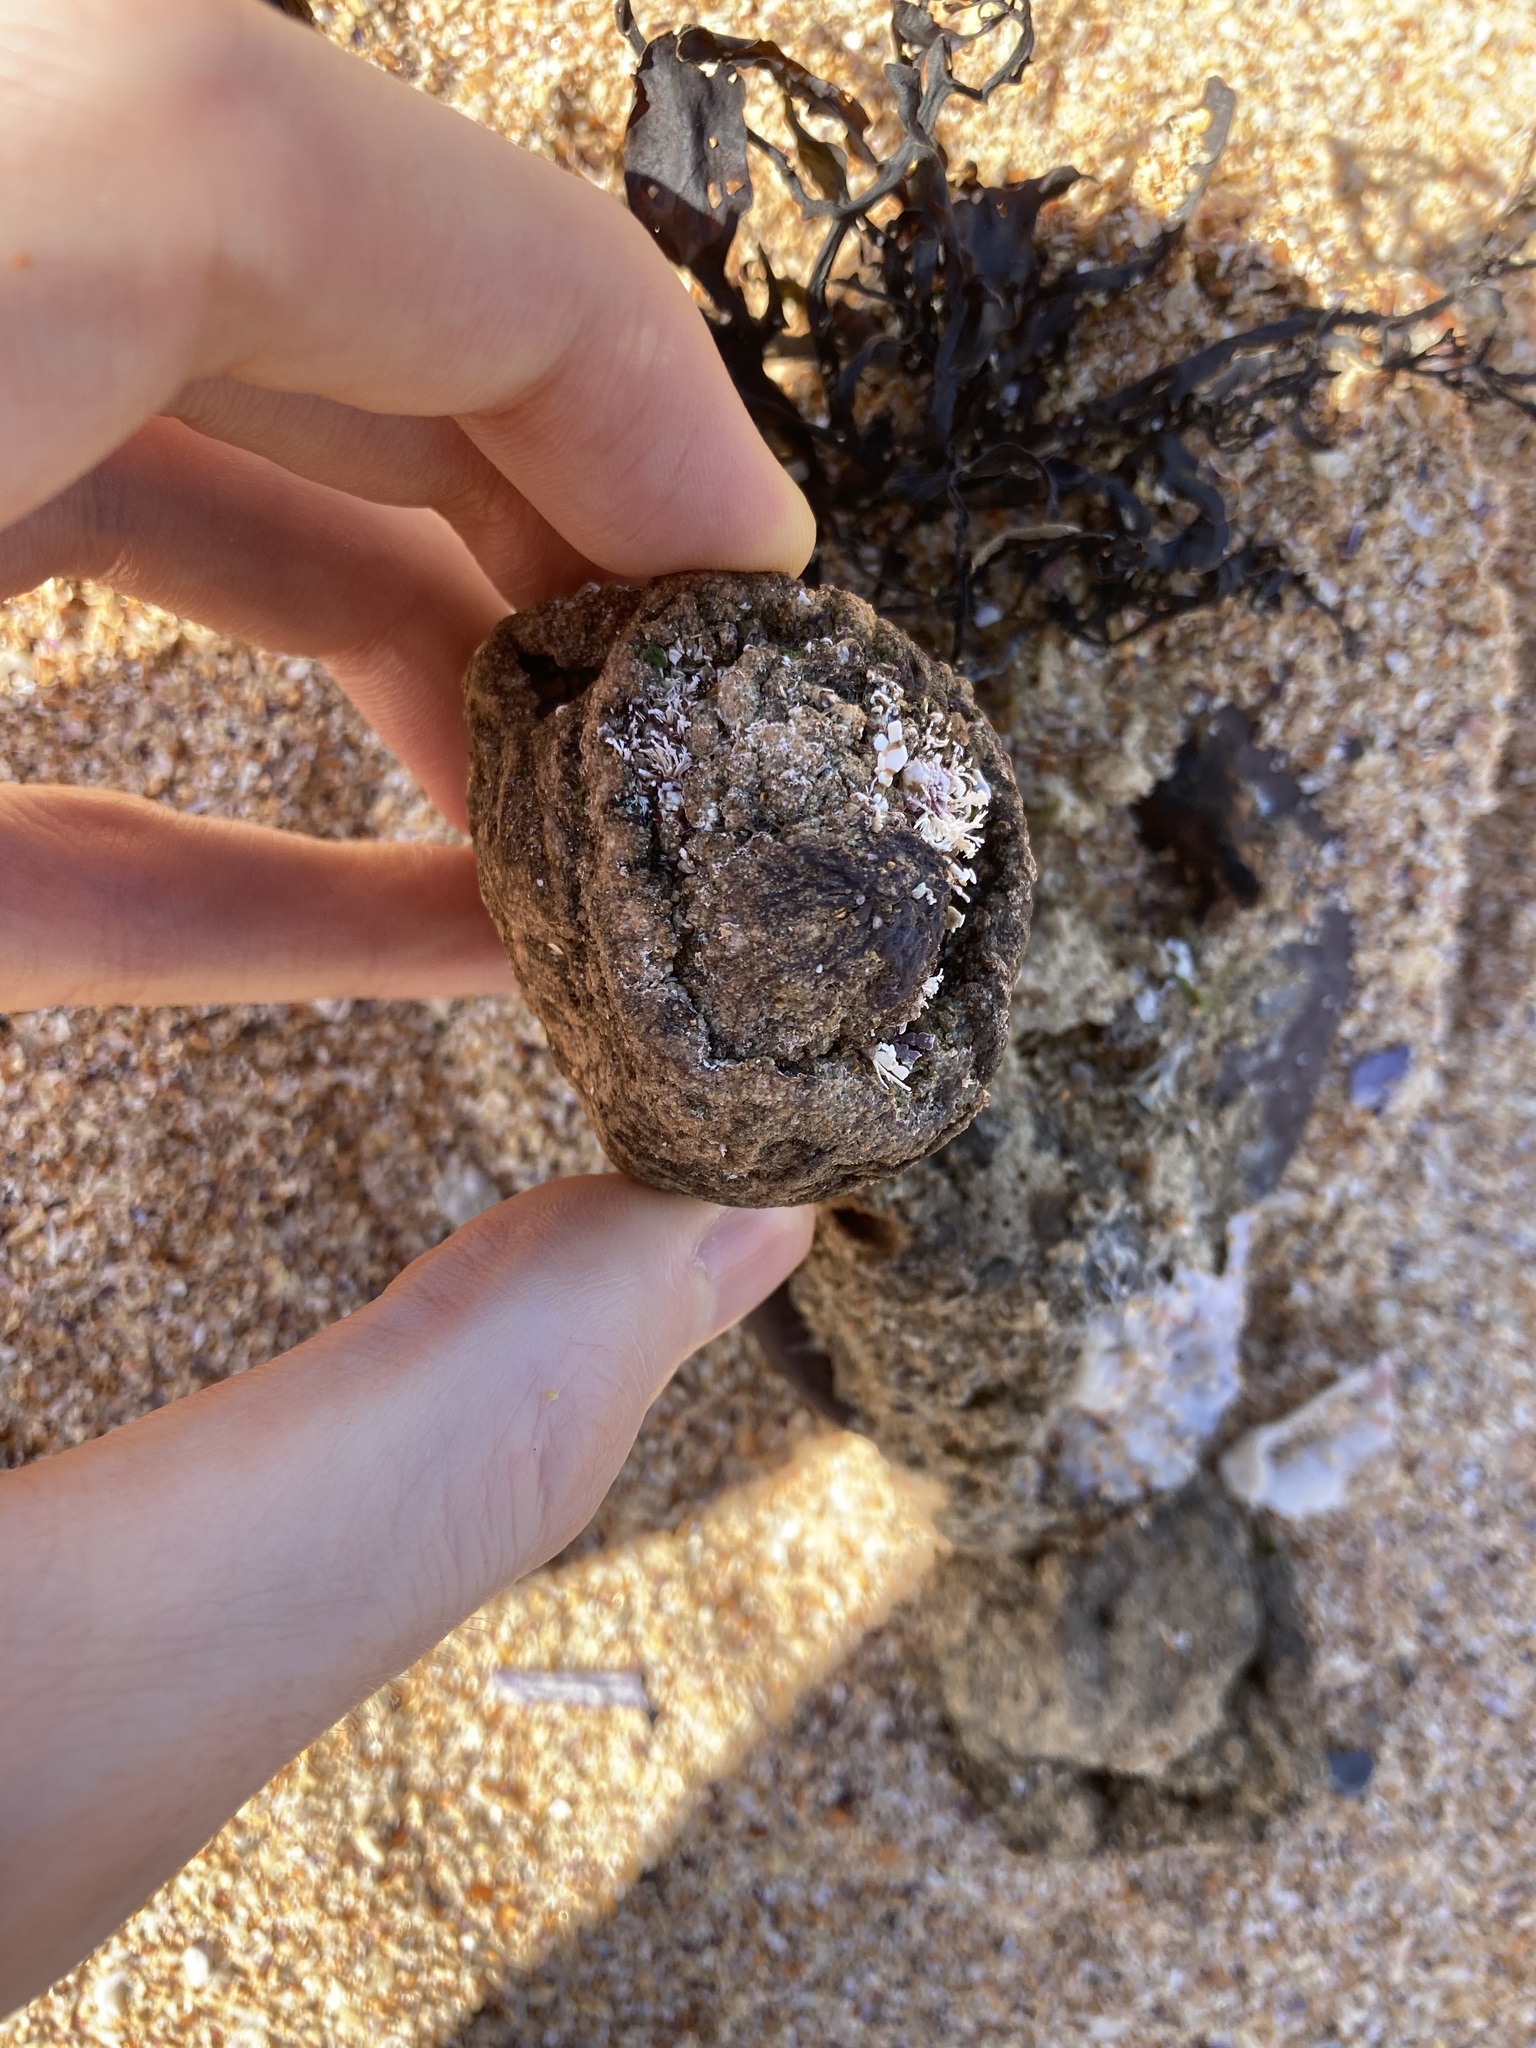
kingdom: Animalia
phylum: Chordata
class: Ascidiacea
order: Stolidobranchia
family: Pyuridae
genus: Pyura
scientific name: Pyura praeputialis
